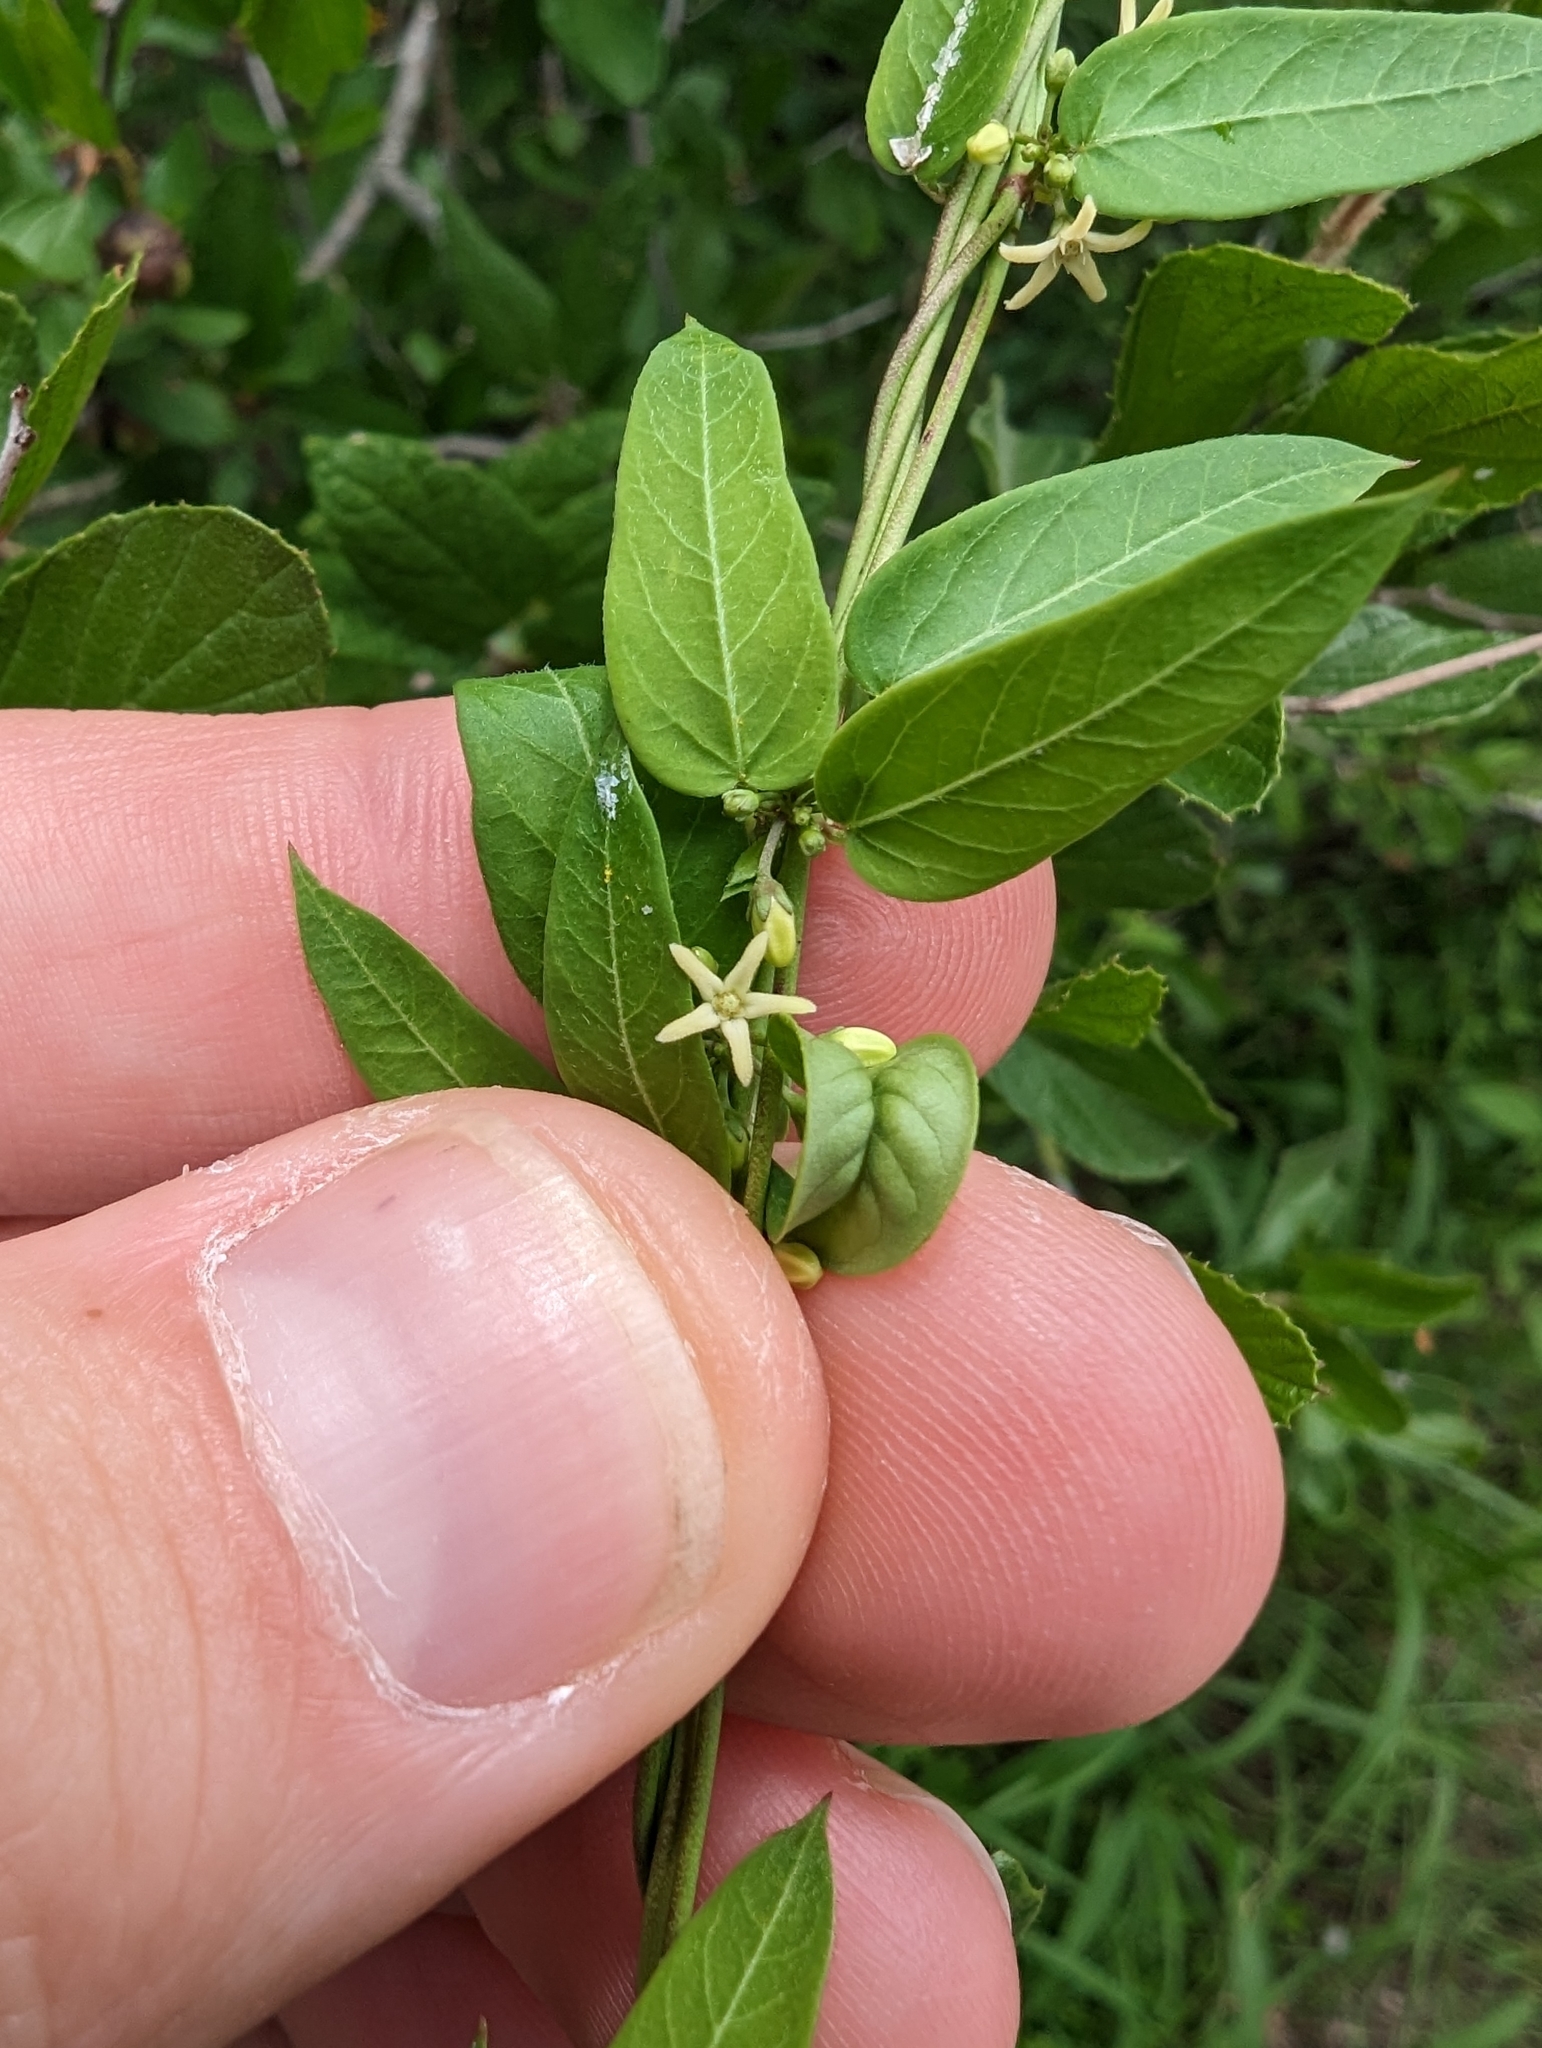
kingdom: Plantae
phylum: Tracheophyta
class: Magnoliopsida
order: Gentianales
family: Apocynaceae
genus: Metastelma
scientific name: Metastelma palmeri
